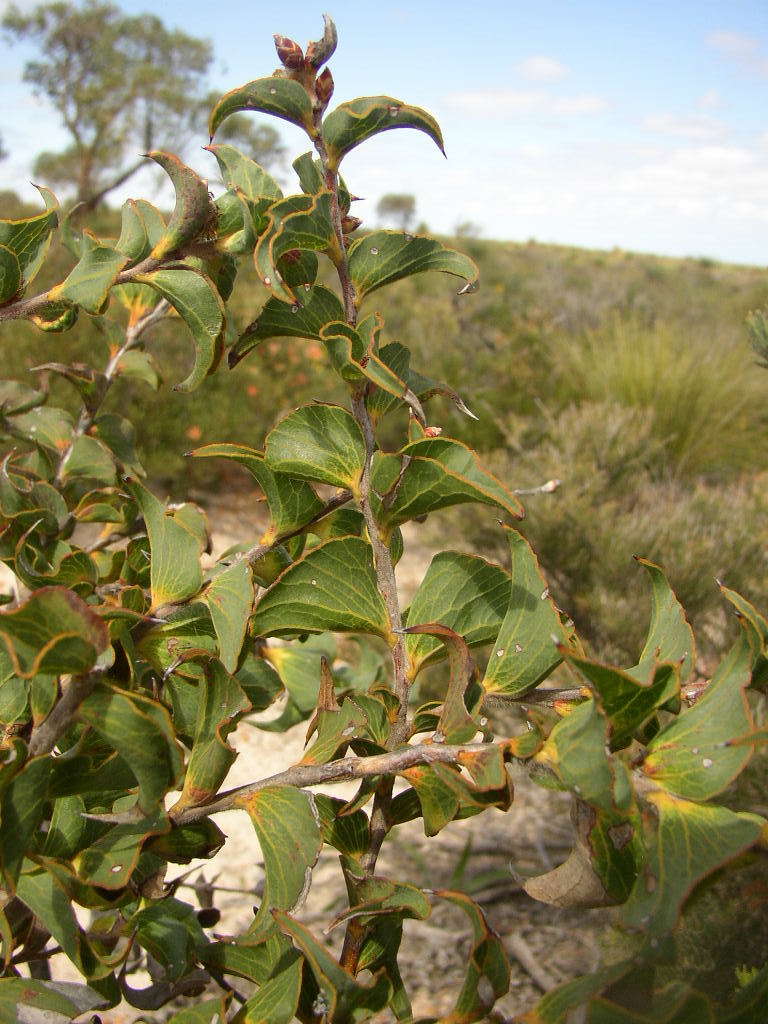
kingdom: Plantae
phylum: Tracheophyta
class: Magnoliopsida
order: Proteales
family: Proteaceae
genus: Hakea
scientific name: Hakea smilacifolia
